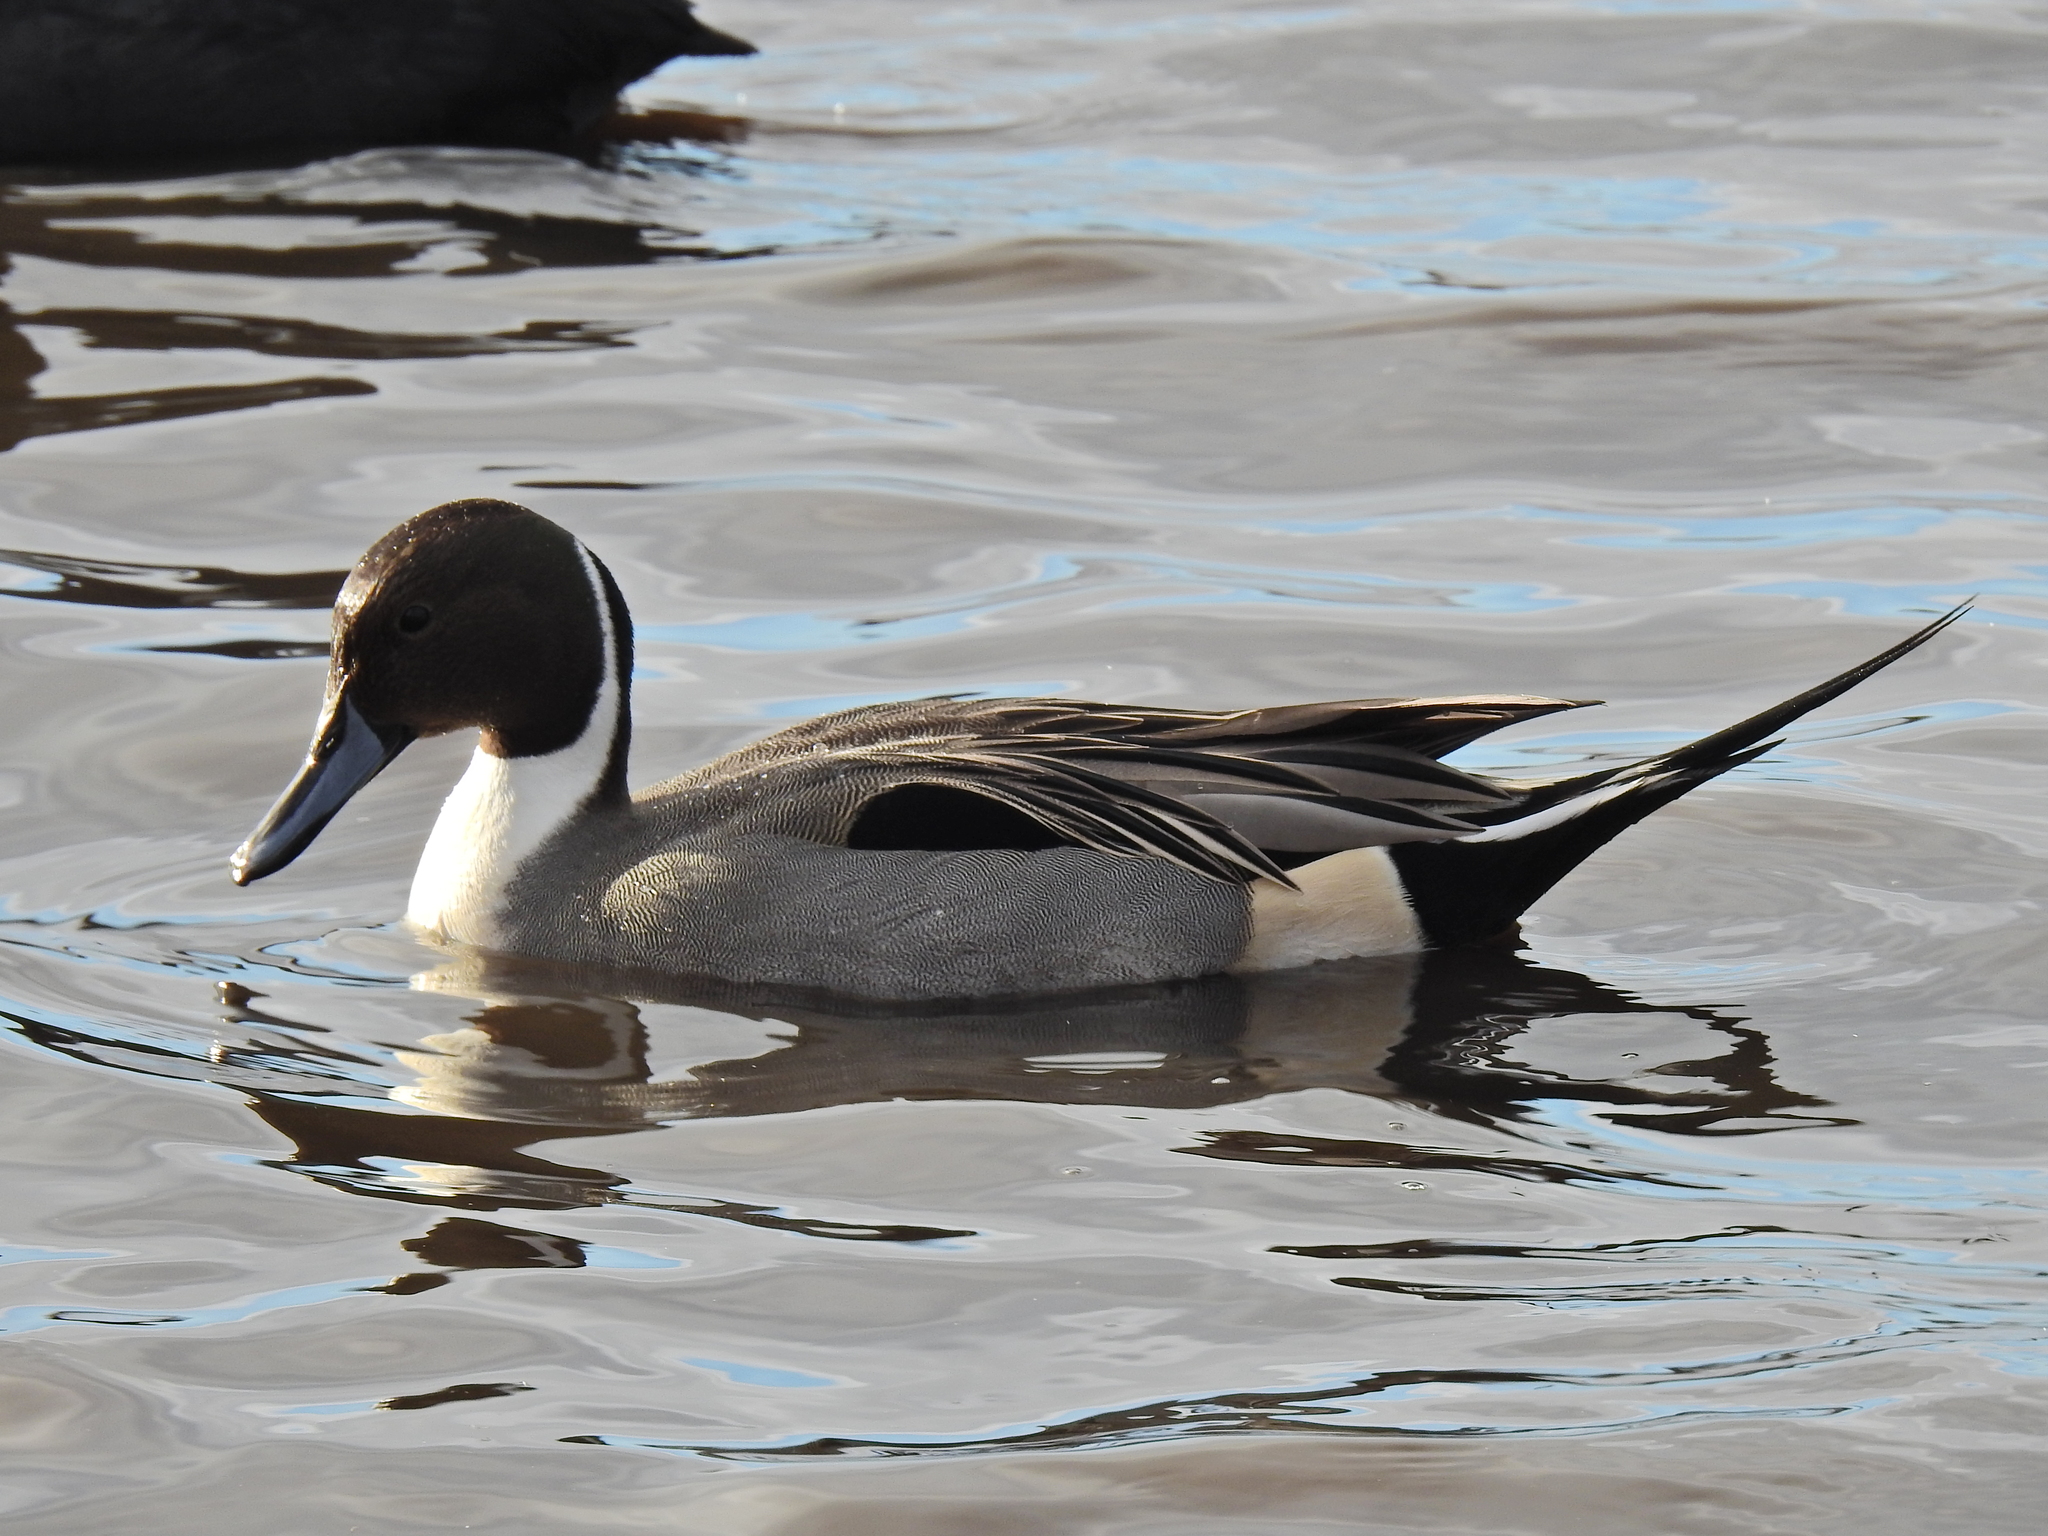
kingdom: Animalia
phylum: Chordata
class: Aves
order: Anseriformes
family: Anatidae
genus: Anas
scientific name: Anas acuta
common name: Northern pintail
